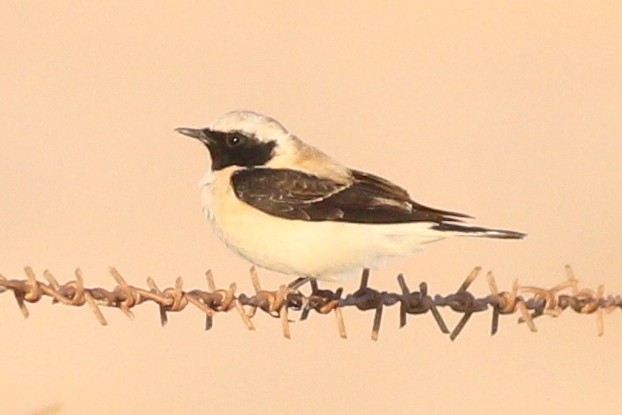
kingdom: Animalia
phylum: Chordata
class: Aves
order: Passeriformes
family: Muscicapidae
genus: Oenanthe
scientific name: Oenanthe hispanica
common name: Black-eared wheatear
